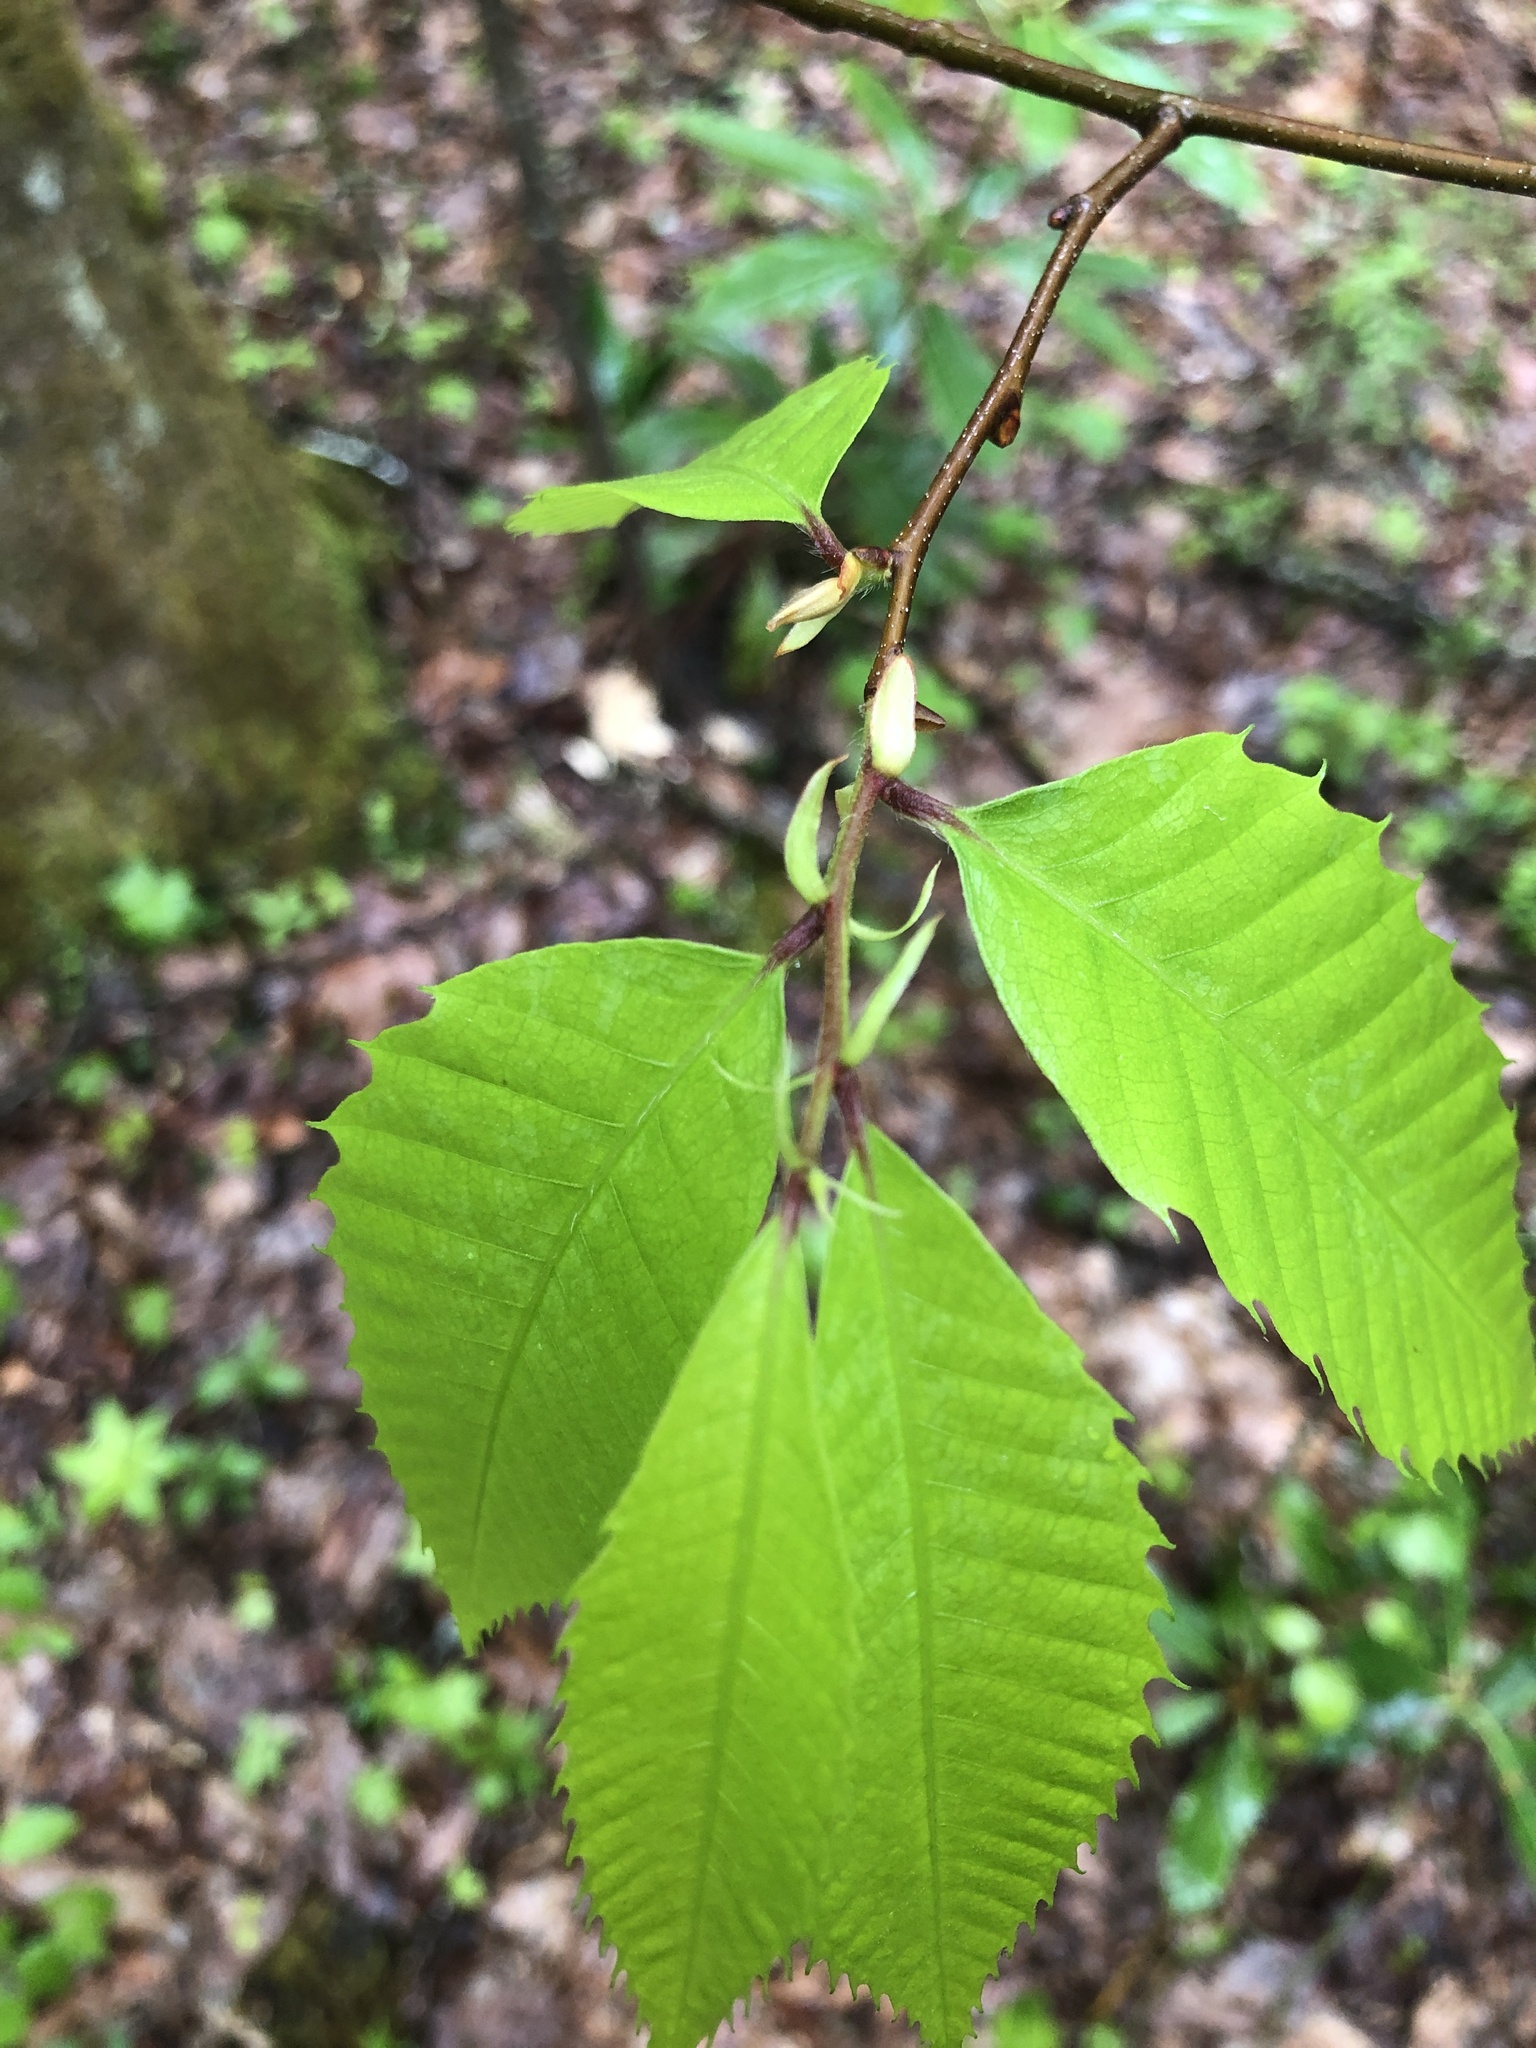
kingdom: Plantae
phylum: Tracheophyta
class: Magnoliopsida
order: Fagales
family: Fagaceae
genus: Castanea
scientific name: Castanea dentata
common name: American chestnut
